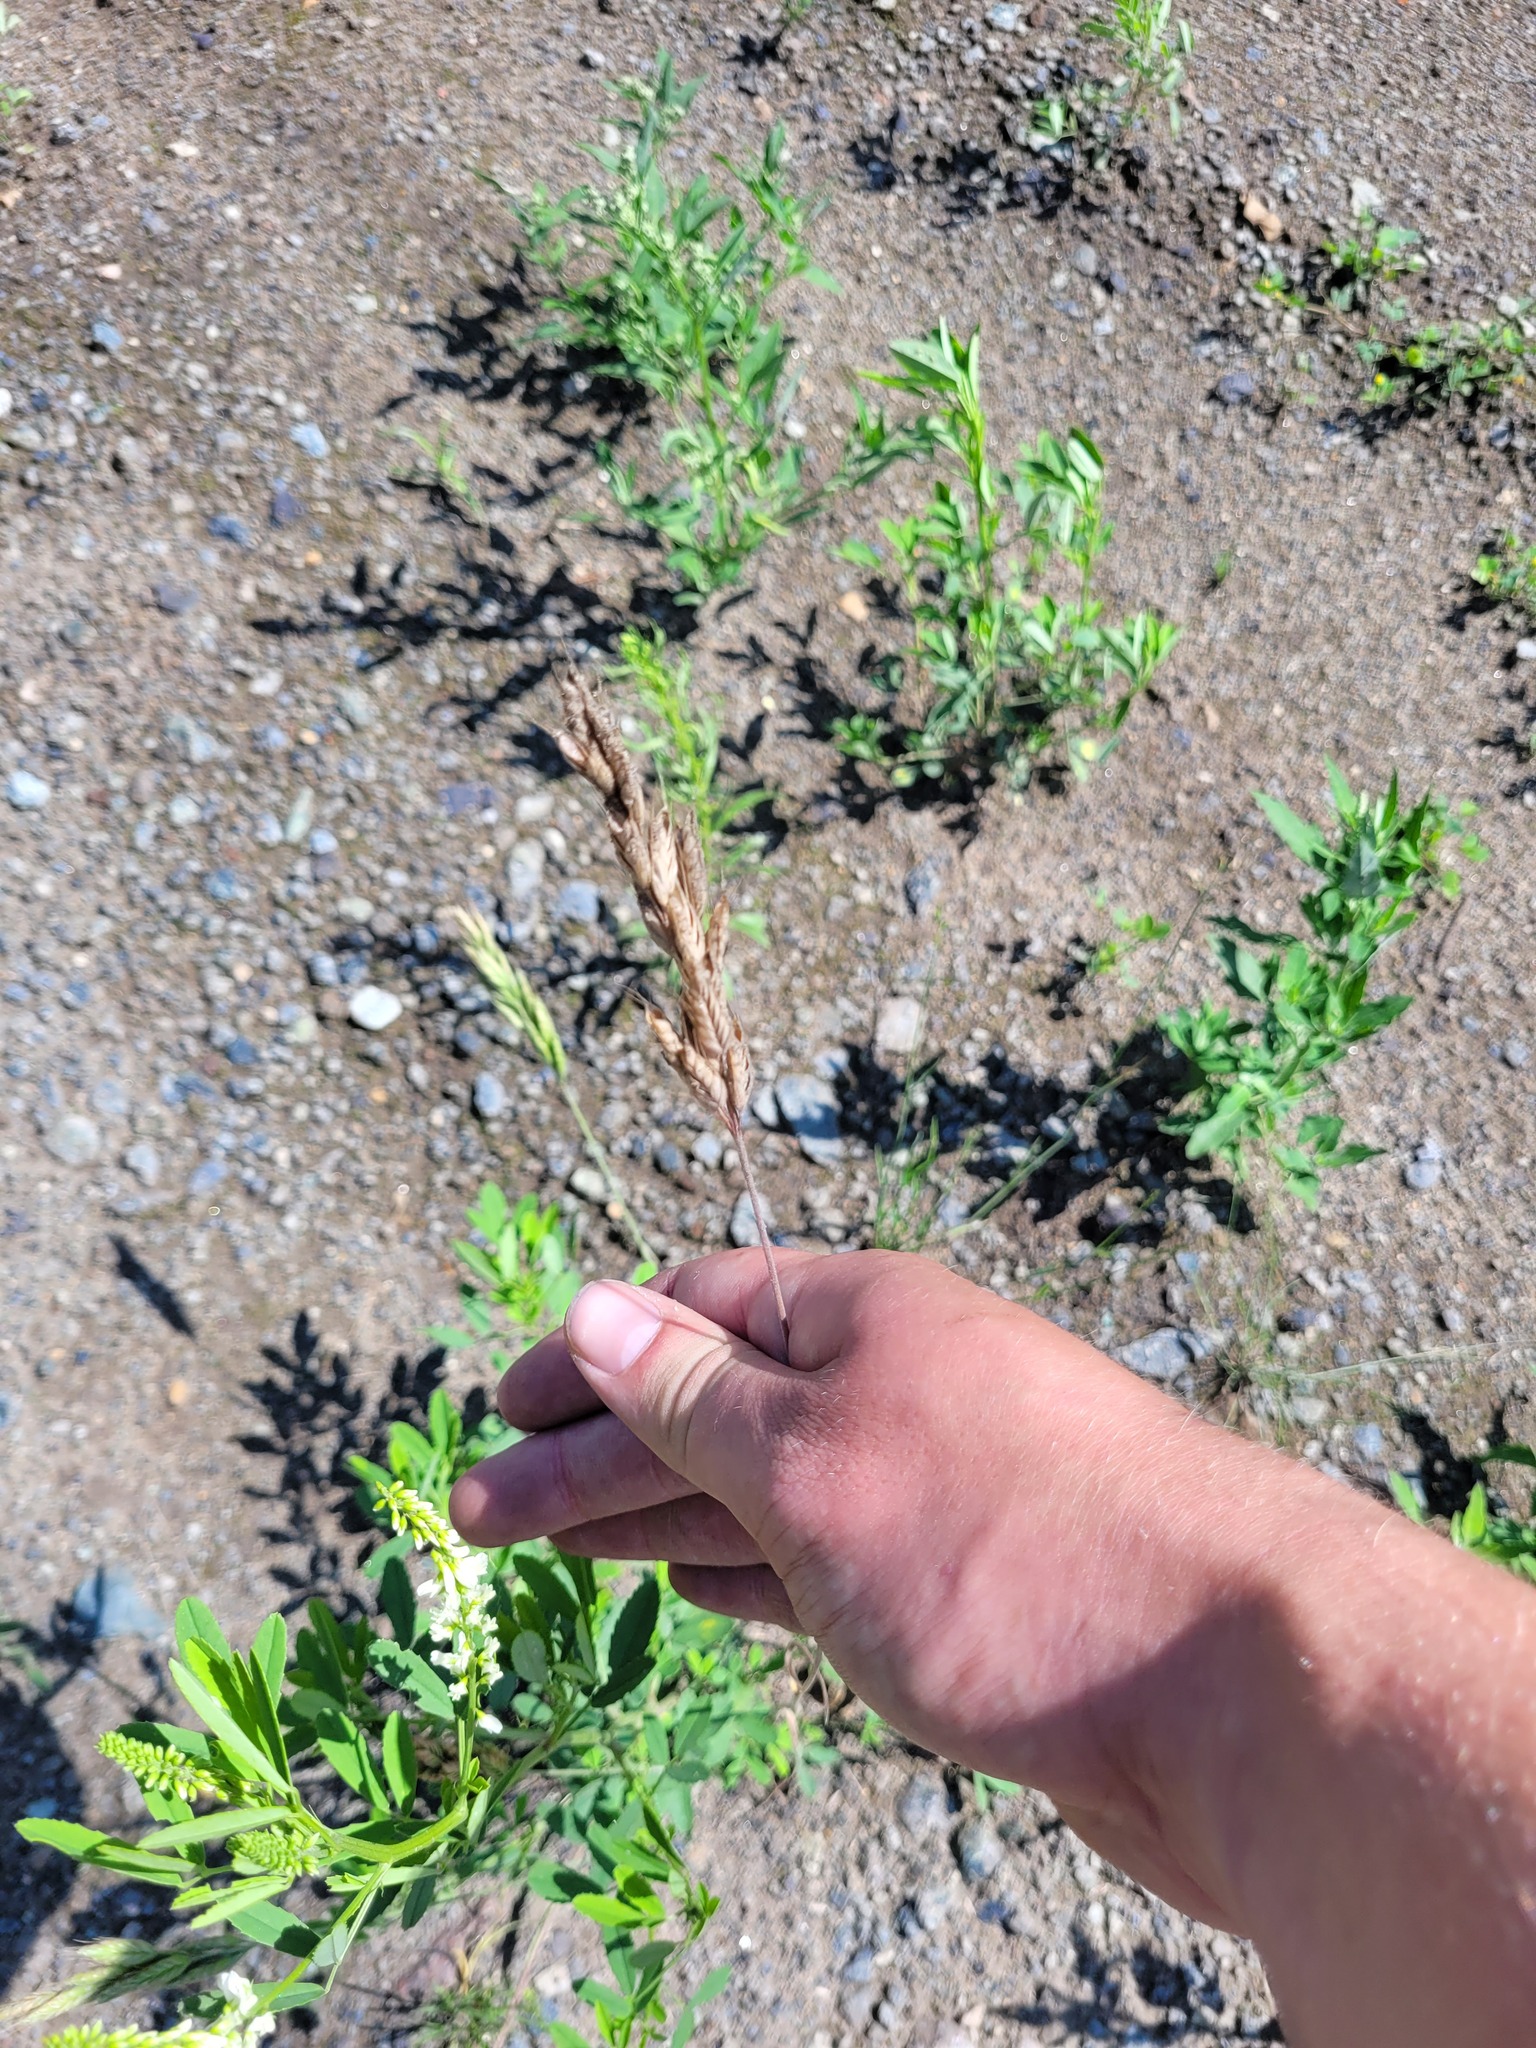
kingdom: Plantae
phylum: Tracheophyta
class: Liliopsida
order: Poales
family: Poaceae
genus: Bromus
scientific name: Bromus hordeaceus
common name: Soft brome
